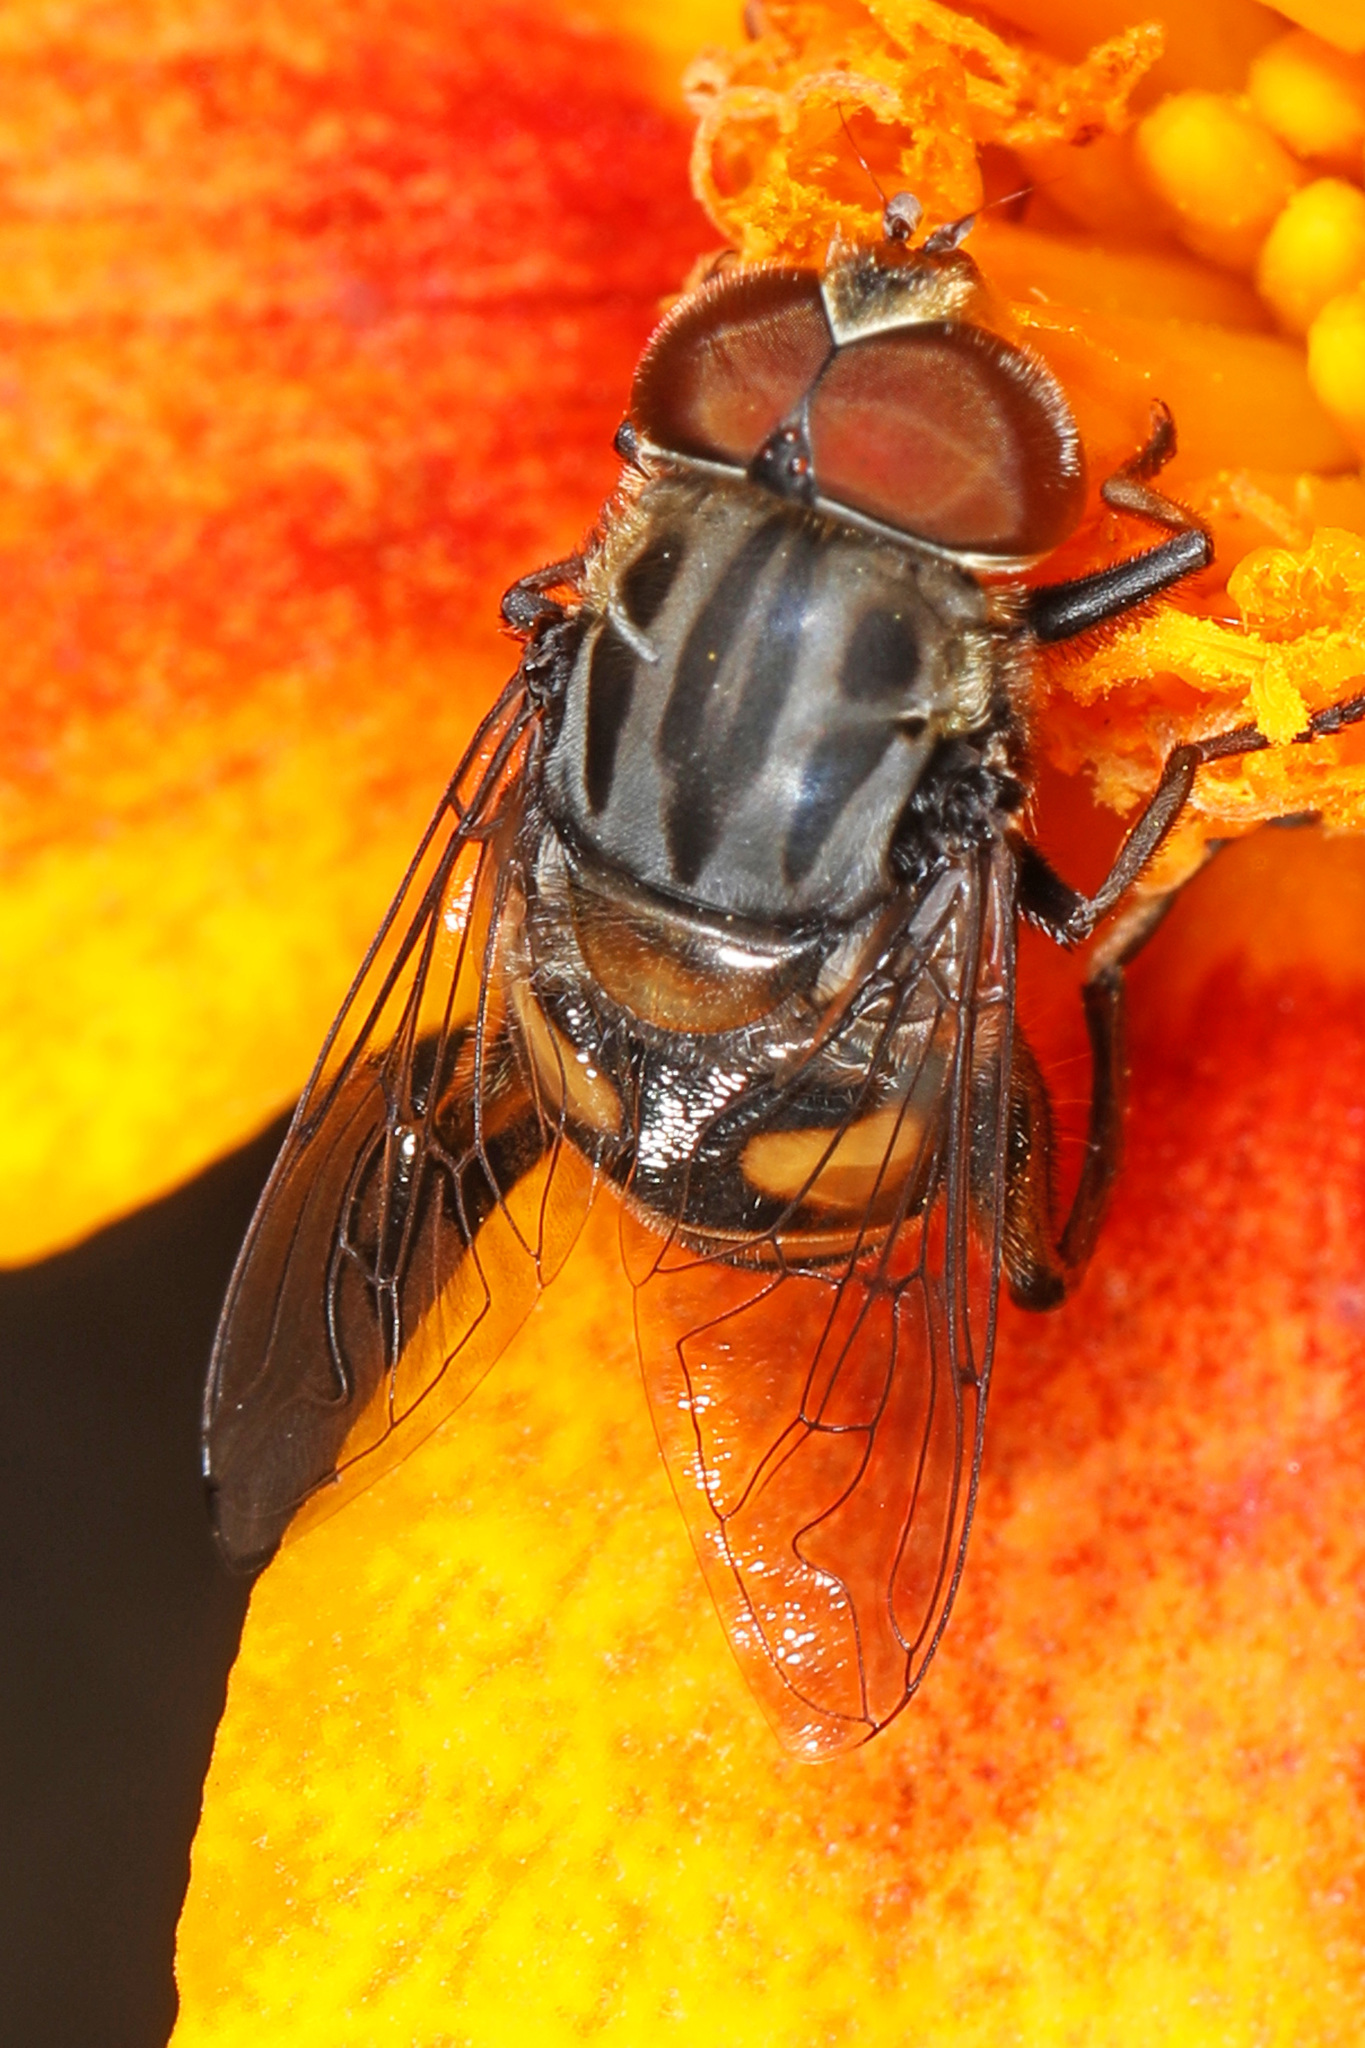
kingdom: Animalia
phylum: Arthropoda
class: Insecta
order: Diptera
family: Syrphidae
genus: Palpada
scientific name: Palpada furcata
